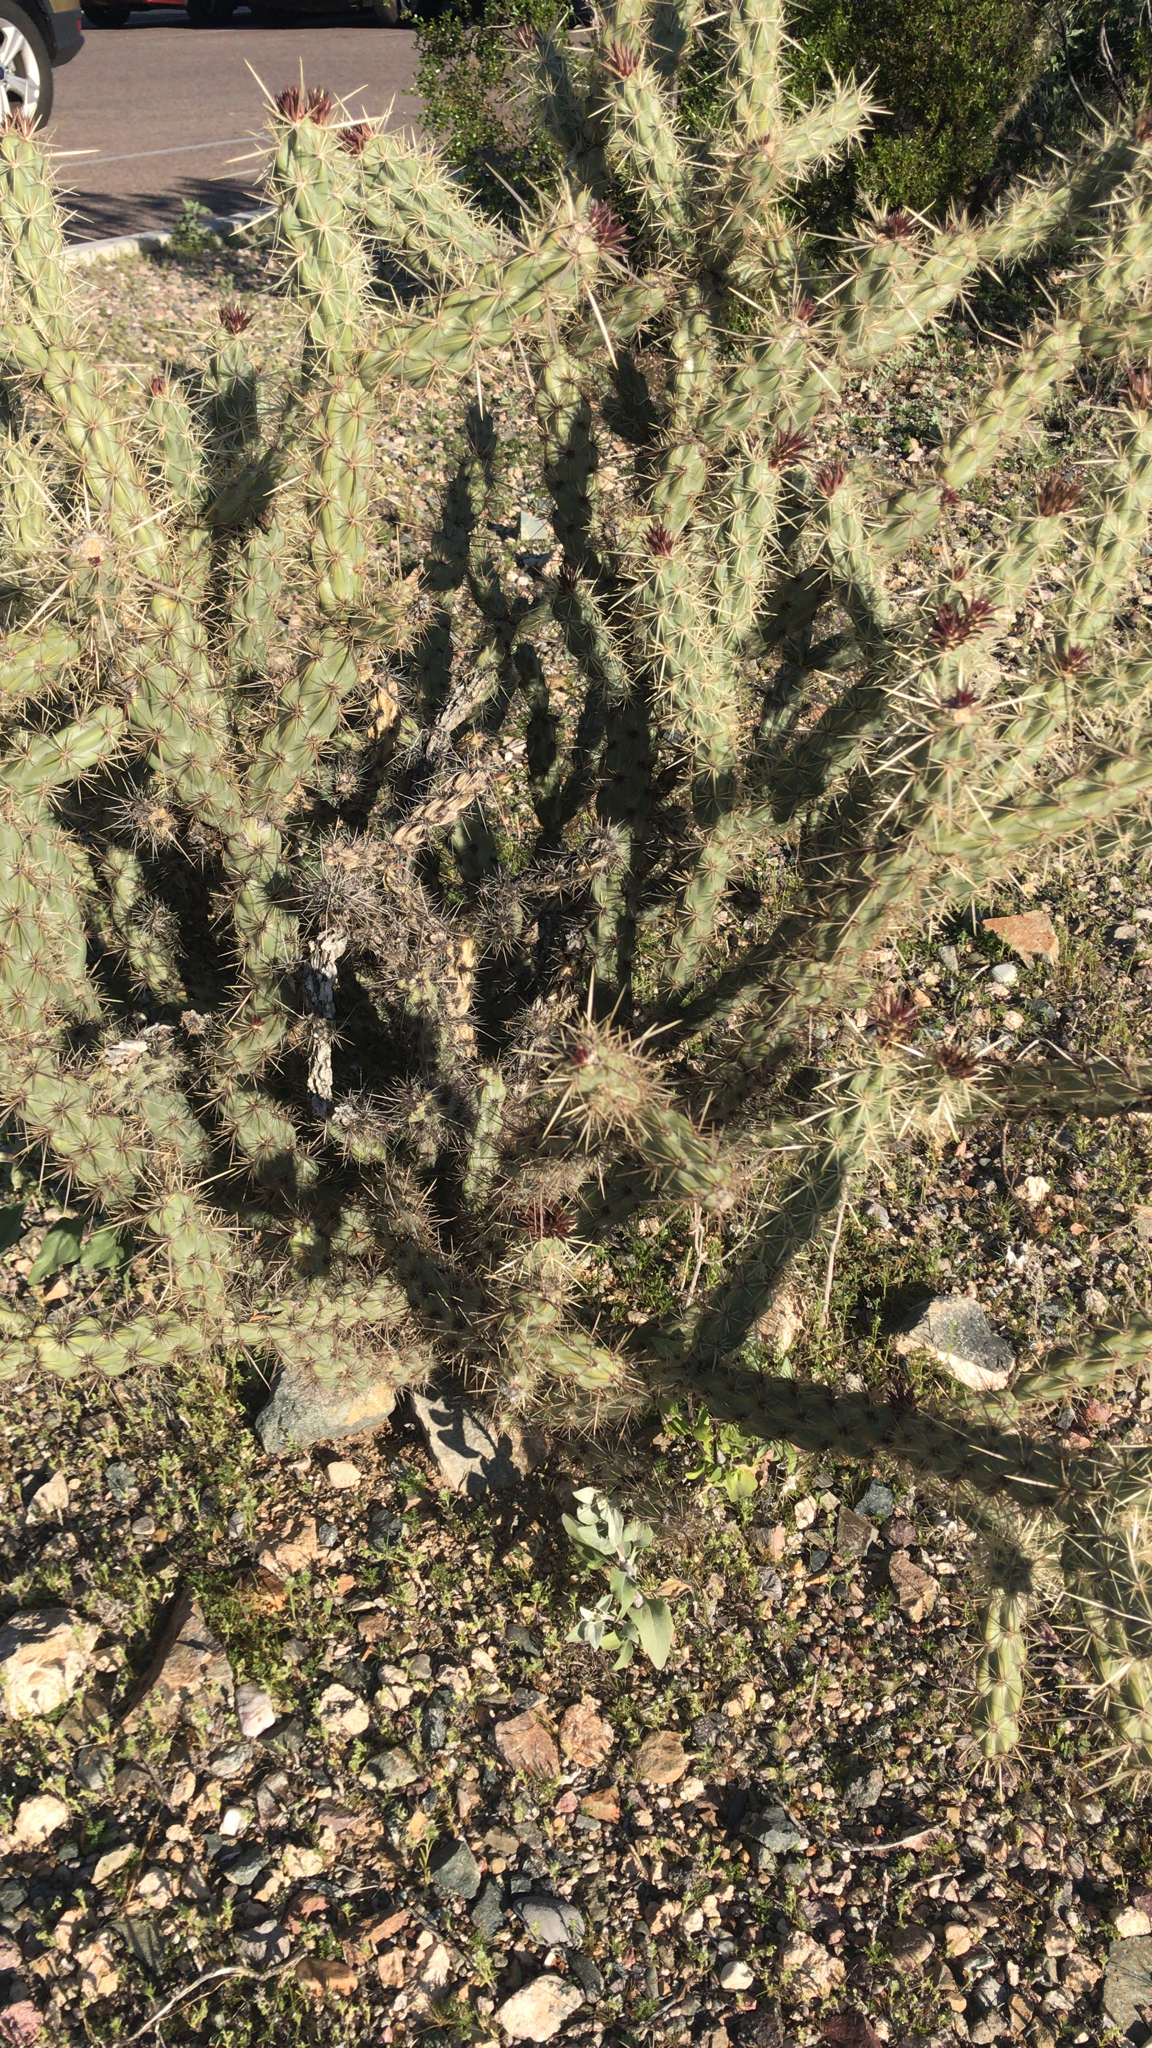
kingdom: Plantae
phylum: Tracheophyta
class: Magnoliopsida
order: Caryophyllales
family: Cactaceae
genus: Cylindropuntia
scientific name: Cylindropuntia acanthocarpa
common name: Buckhorn cholla
